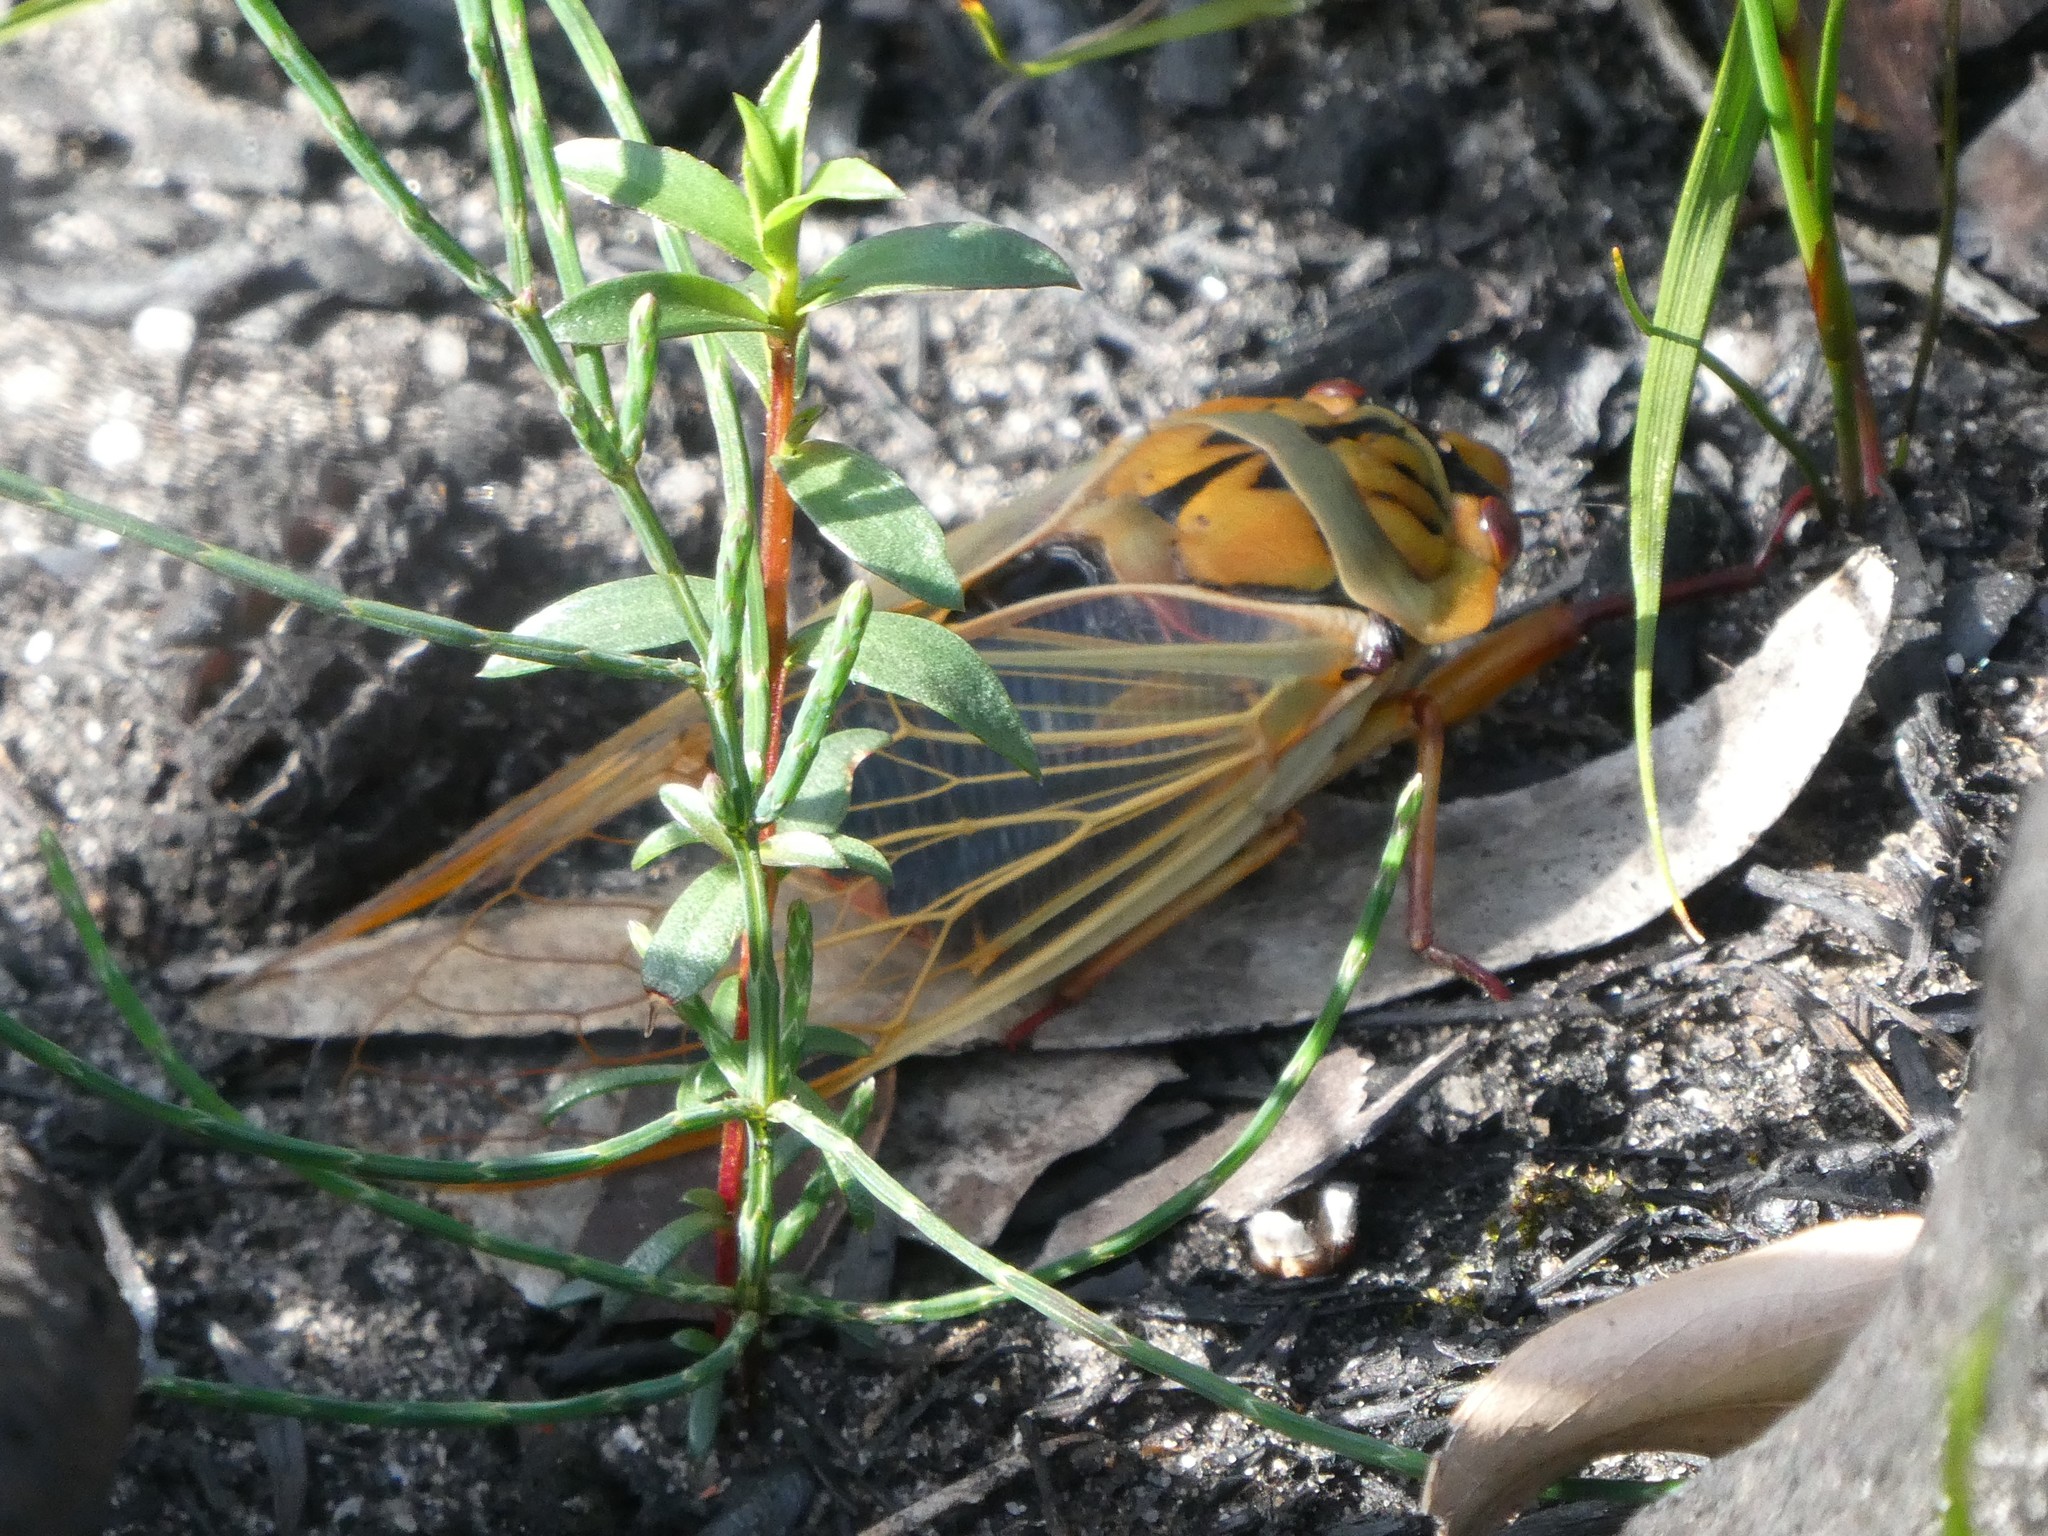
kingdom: Animalia
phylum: Arthropoda
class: Insecta
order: Hemiptera
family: Cicadidae
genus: Cyclochila
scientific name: Cyclochila australasiae
